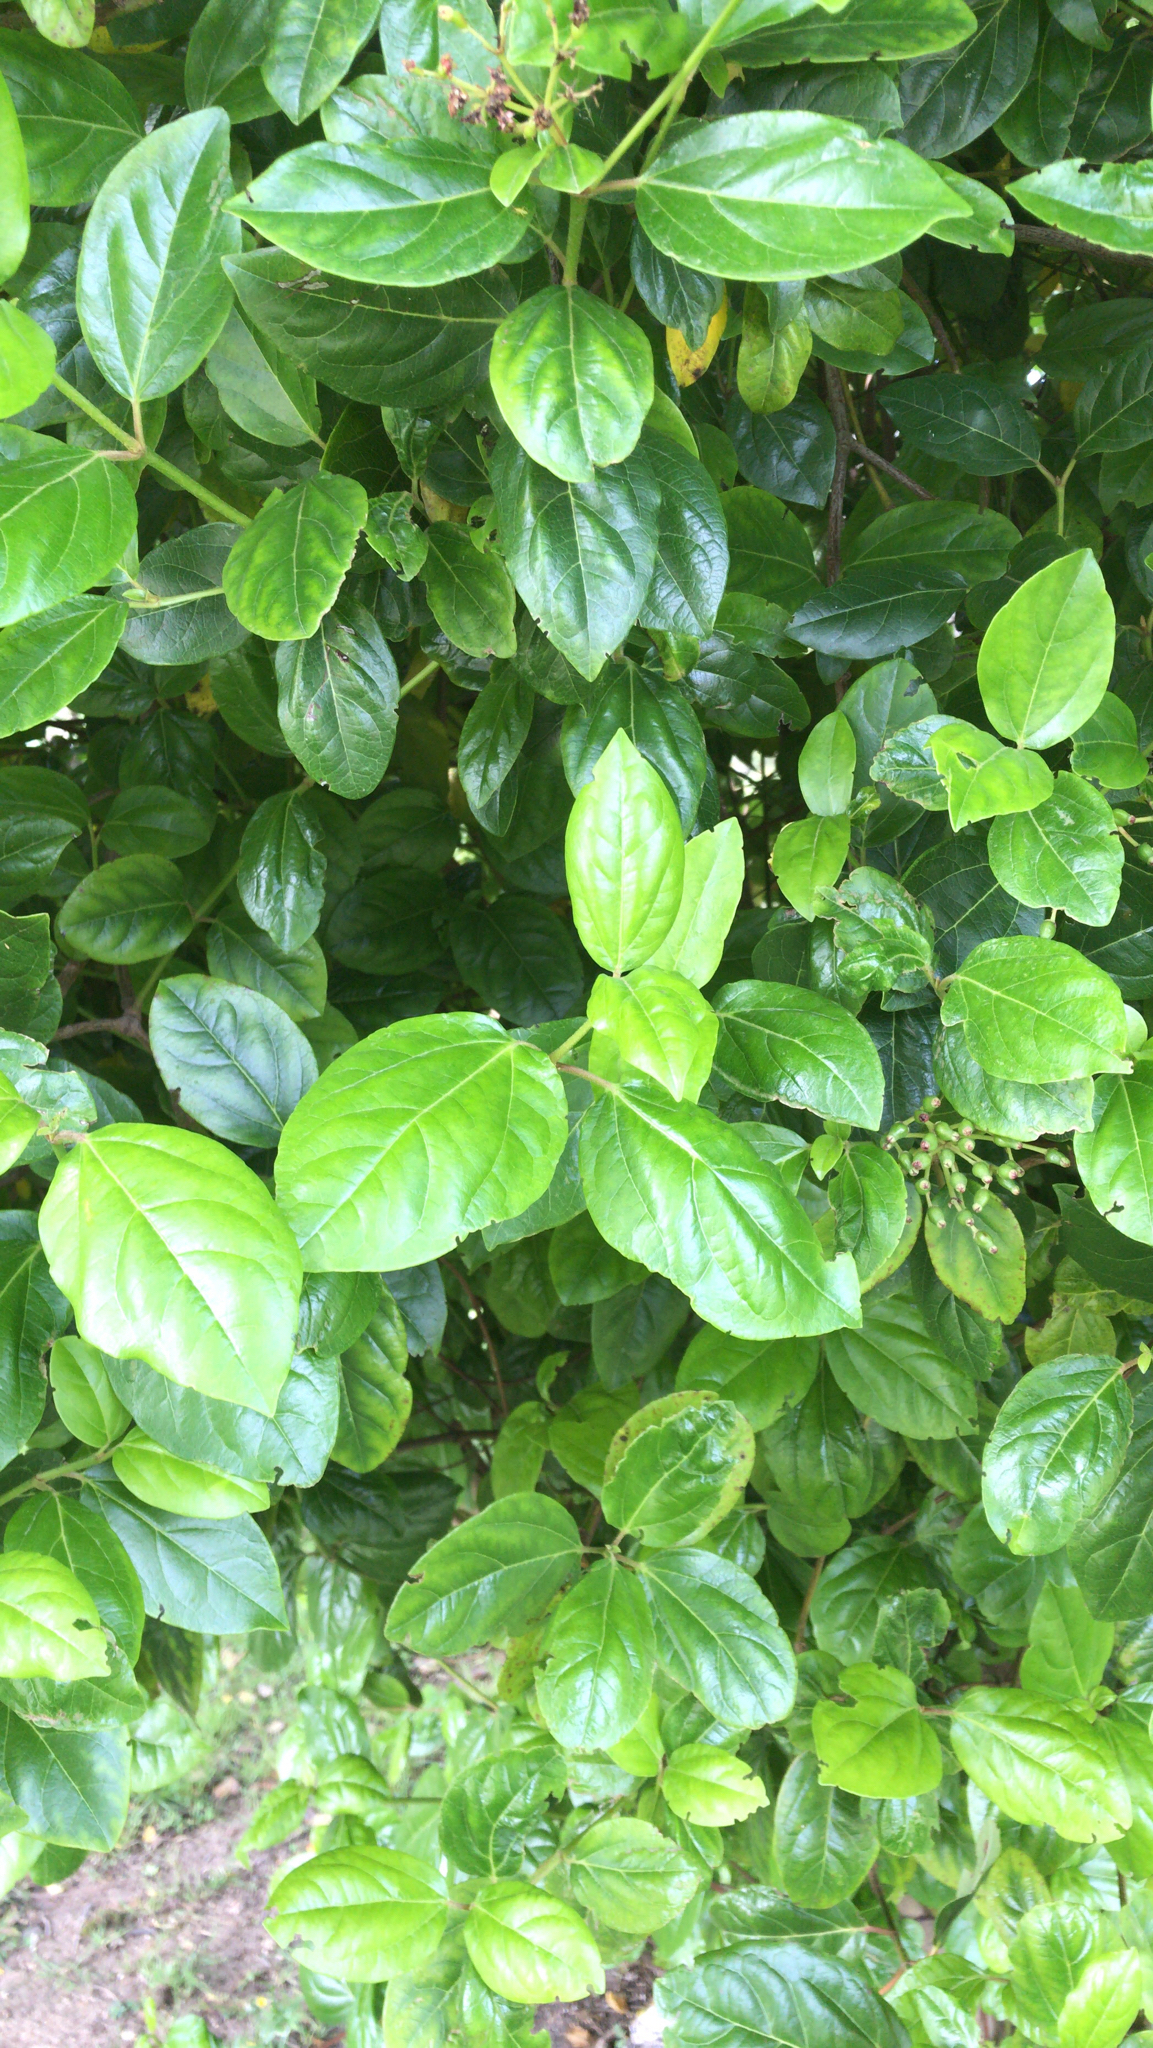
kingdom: Plantae
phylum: Tracheophyta
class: Magnoliopsida
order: Dipsacales
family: Viburnaceae
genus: Viburnum
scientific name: Viburnum tinus
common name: Laurustinus
